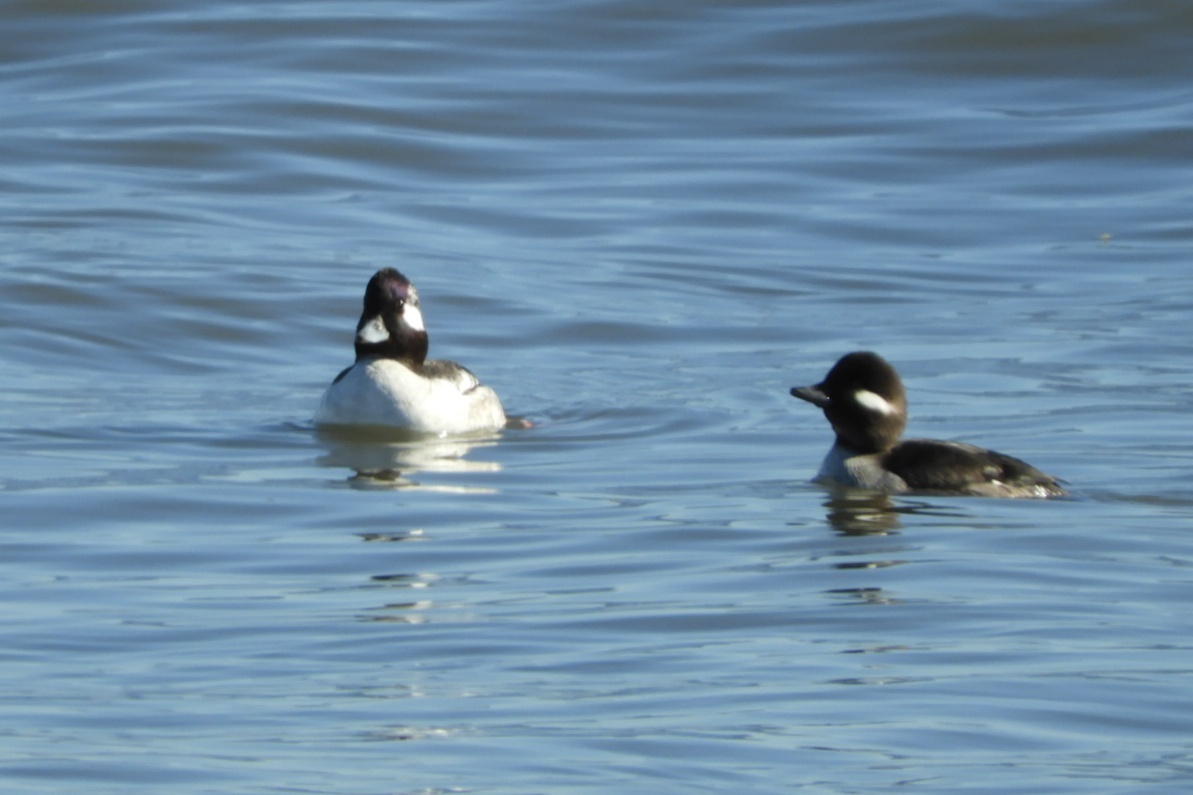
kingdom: Animalia
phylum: Chordata
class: Aves
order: Anseriformes
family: Anatidae
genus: Bucephala
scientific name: Bucephala albeola
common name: Bufflehead
